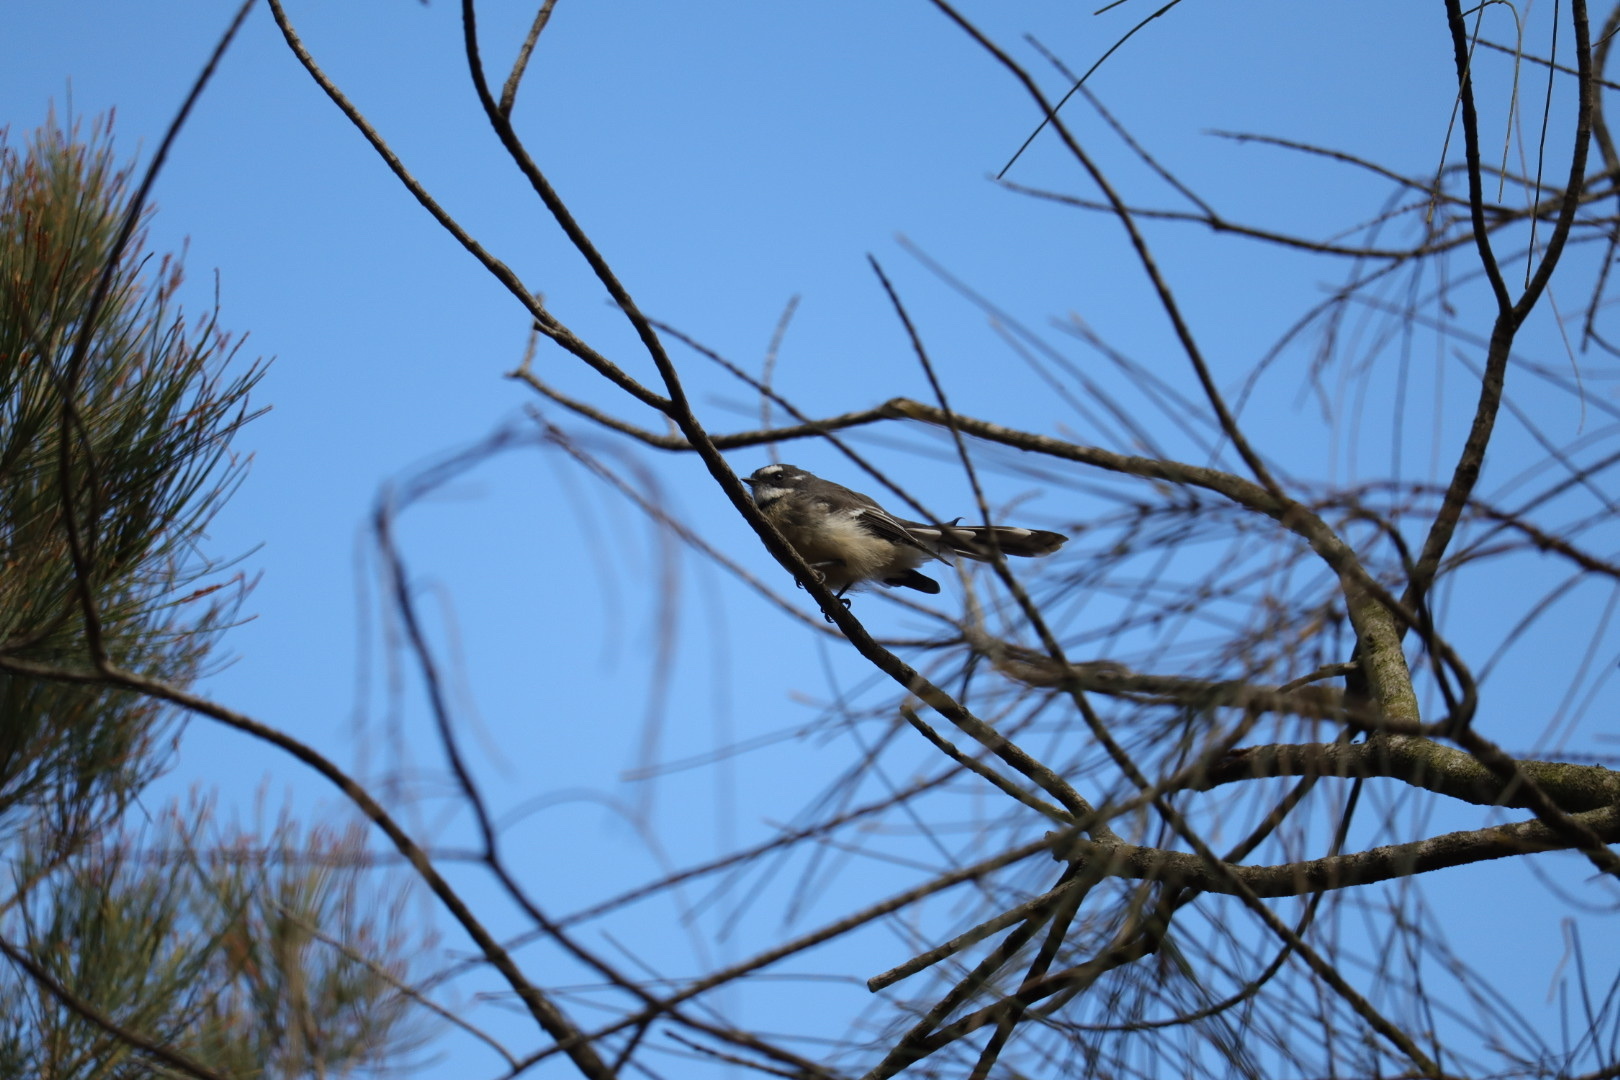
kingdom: Animalia
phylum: Chordata
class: Aves
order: Passeriformes
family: Rhipiduridae
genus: Rhipidura
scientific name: Rhipidura albiscapa
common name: Grey fantail
